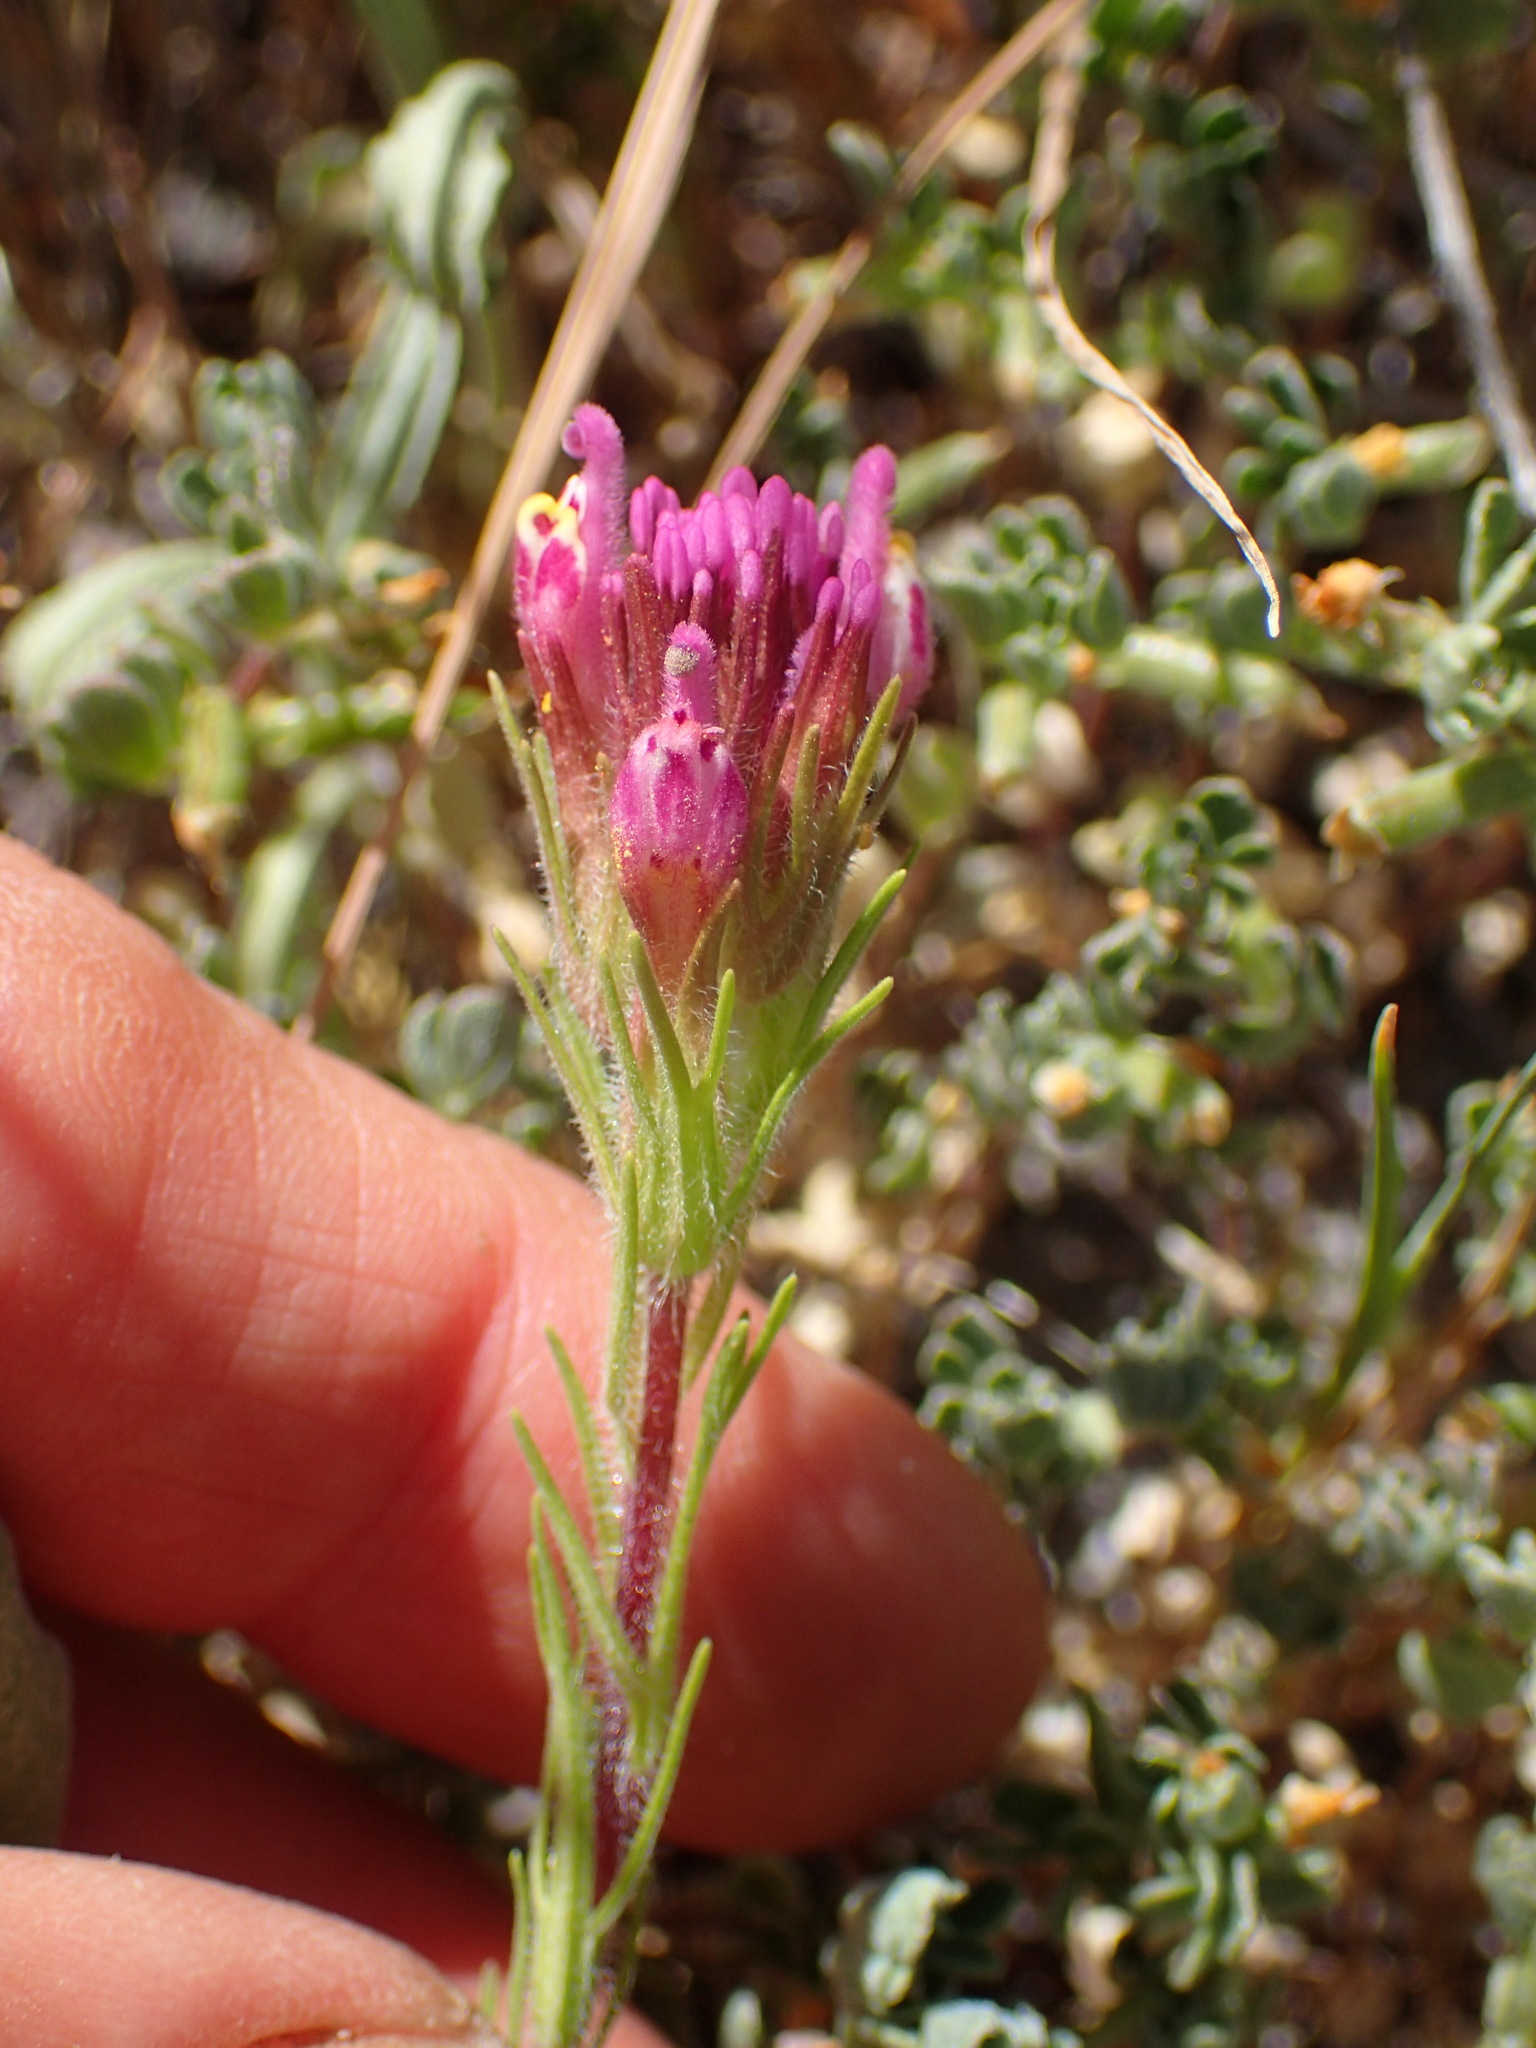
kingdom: Plantae
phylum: Tracheophyta
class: Magnoliopsida
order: Lamiales
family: Orobanchaceae
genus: Castilleja
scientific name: Castilleja exserta
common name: Purple owl-clover
